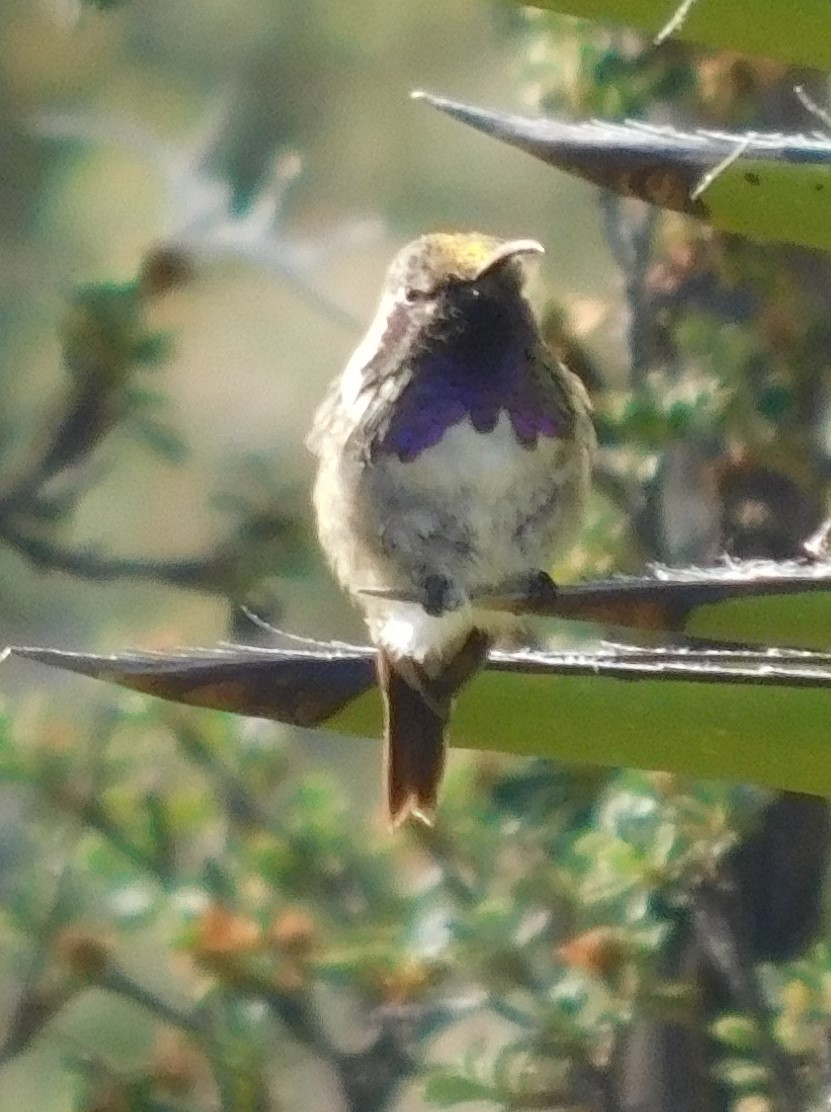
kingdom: Animalia
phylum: Chordata
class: Aves
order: Apodiformes
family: Trochilidae
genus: Calothorax
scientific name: Calothorax lucifer
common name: Lucifer sheartail
